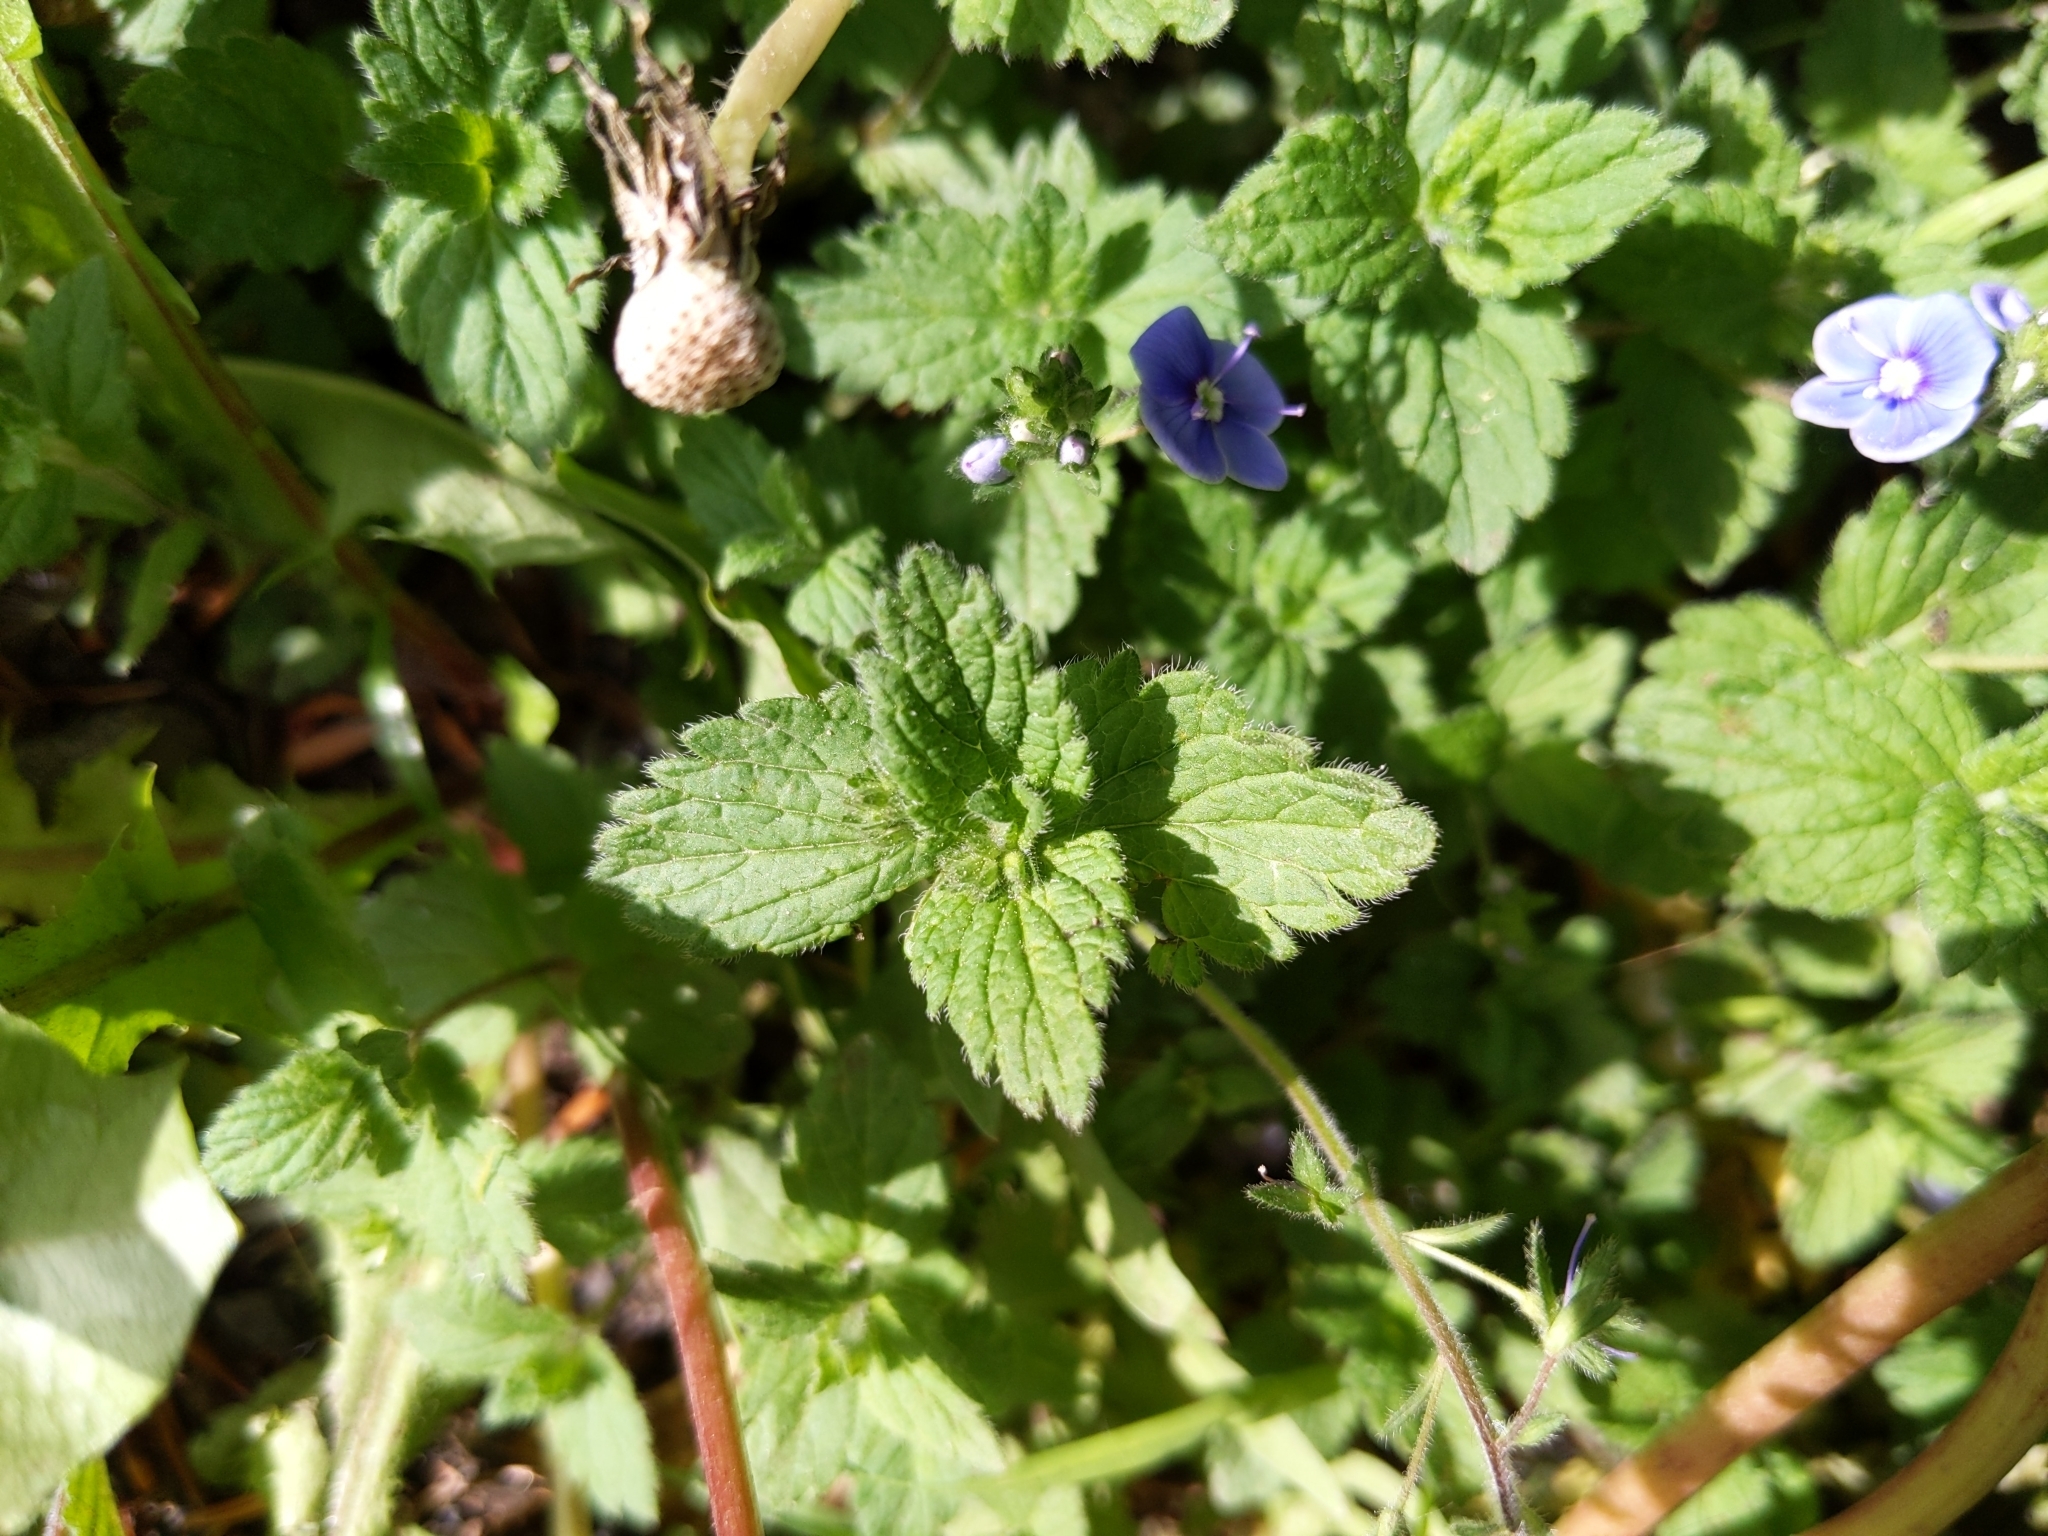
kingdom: Plantae
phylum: Tracheophyta
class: Magnoliopsida
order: Lamiales
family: Plantaginaceae
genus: Veronica
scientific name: Veronica chamaedrys
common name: Germander speedwell
